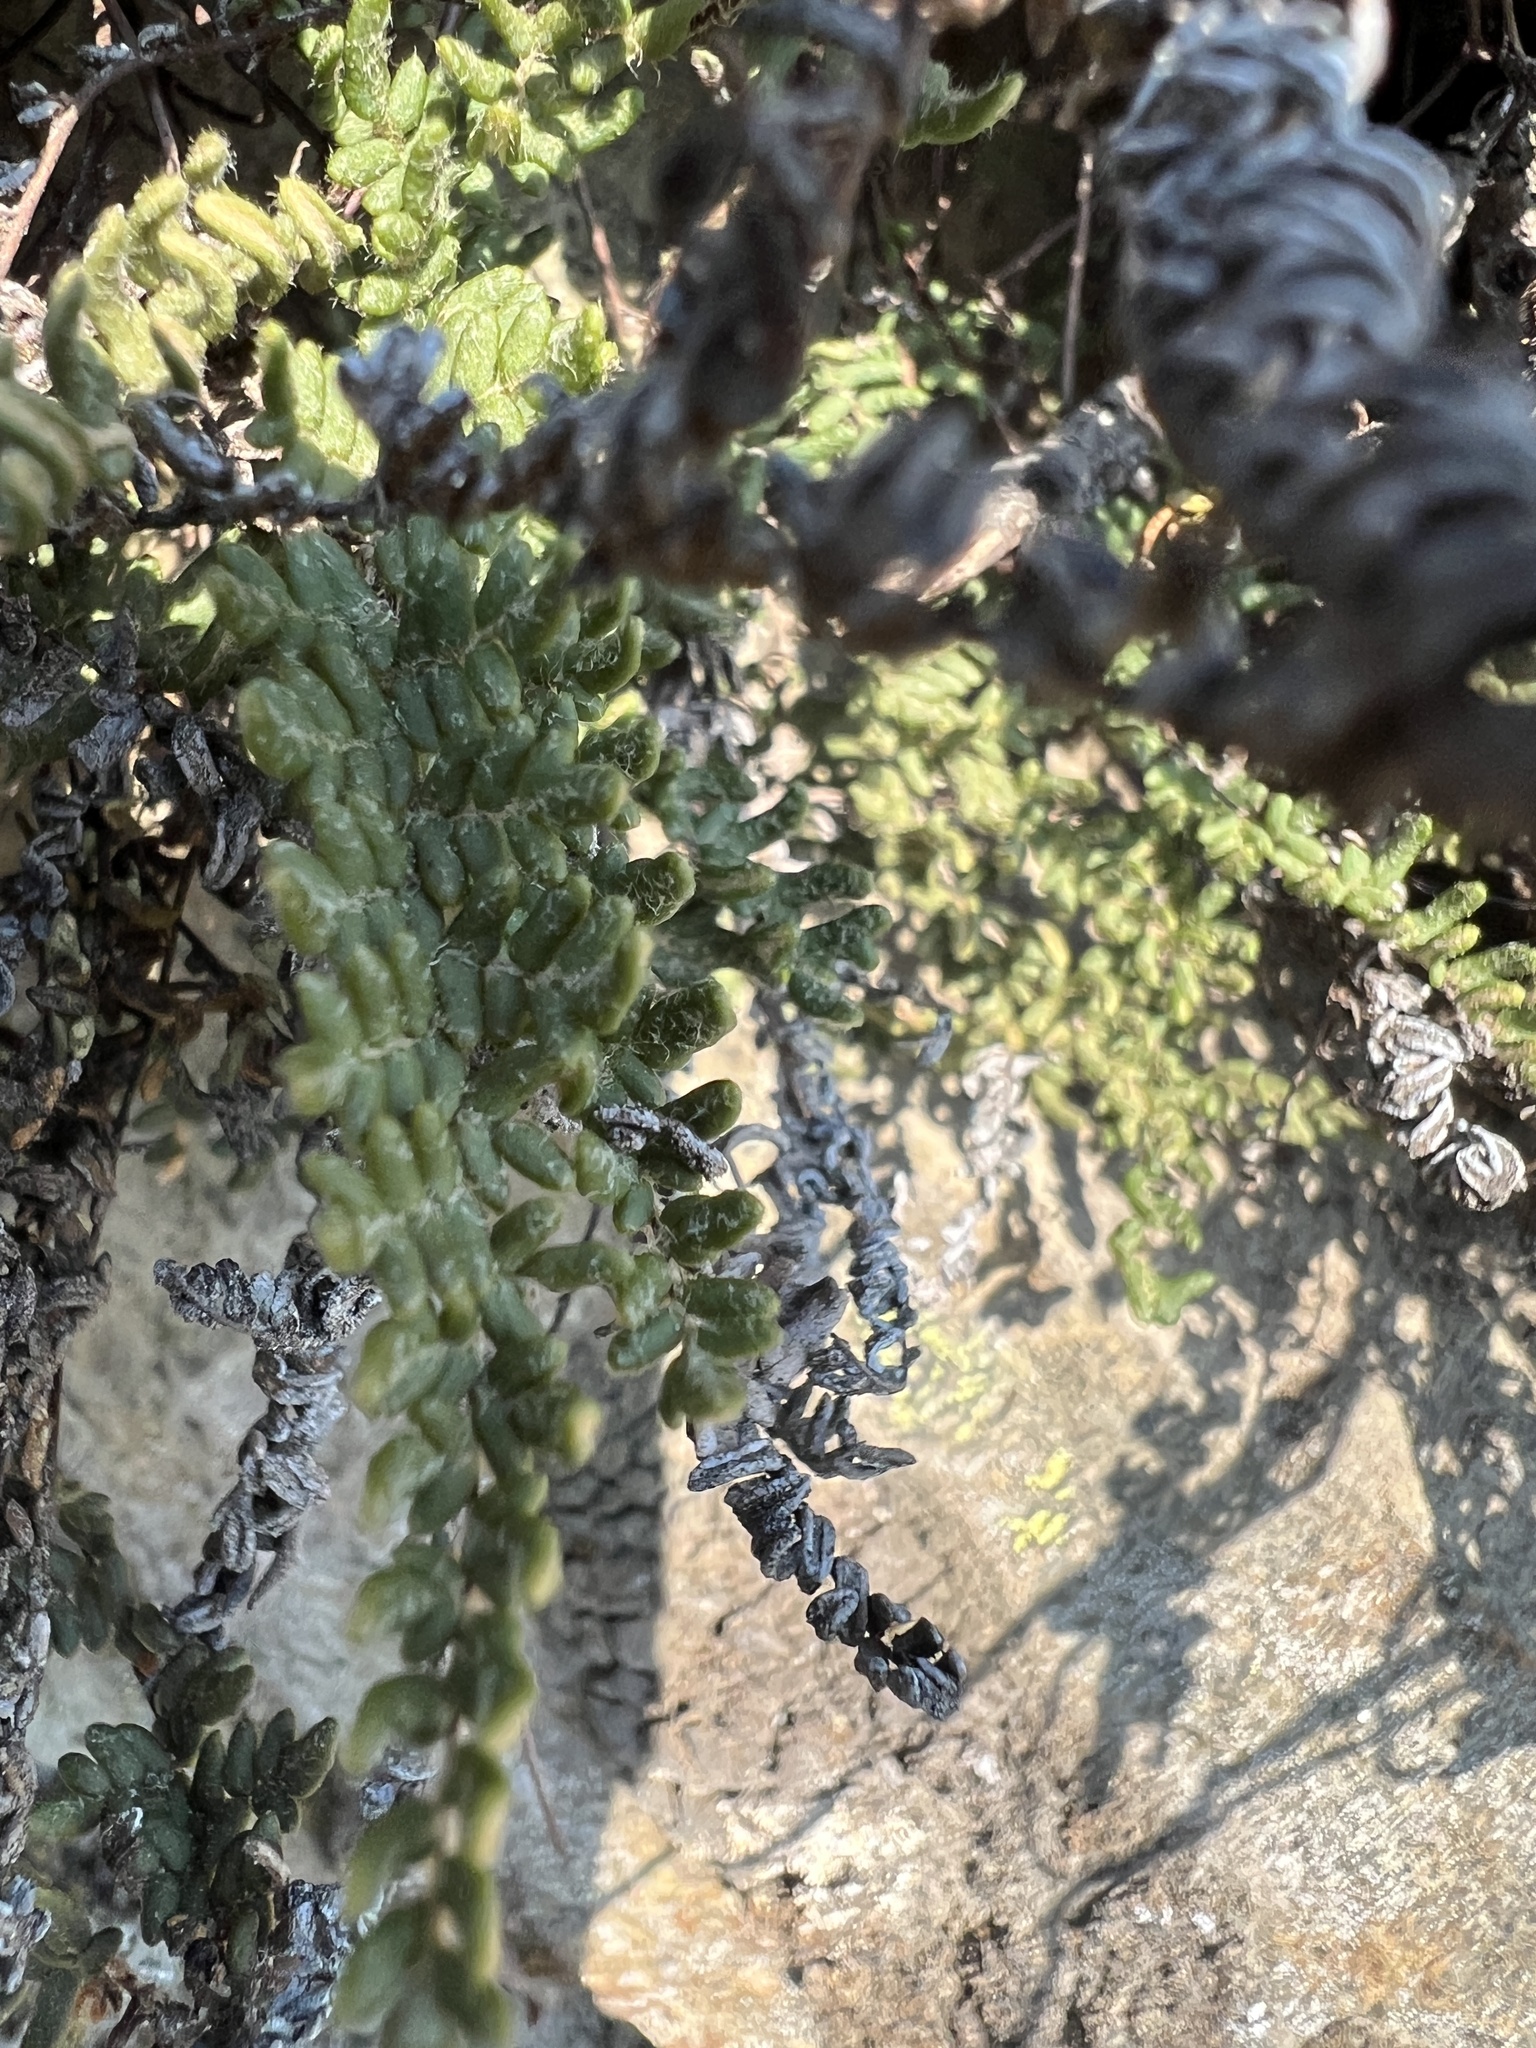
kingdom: Plantae
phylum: Tracheophyta
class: Polypodiopsida
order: Polypodiales
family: Pteridaceae
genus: Myriopteris
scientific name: Myriopteris gracillima
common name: Lace fern
